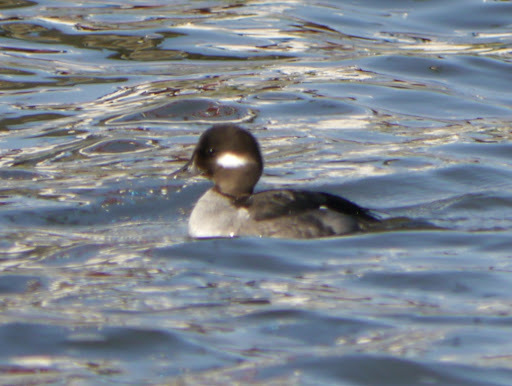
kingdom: Animalia
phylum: Chordata
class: Aves
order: Anseriformes
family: Anatidae
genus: Bucephala
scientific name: Bucephala albeola
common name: Bufflehead
